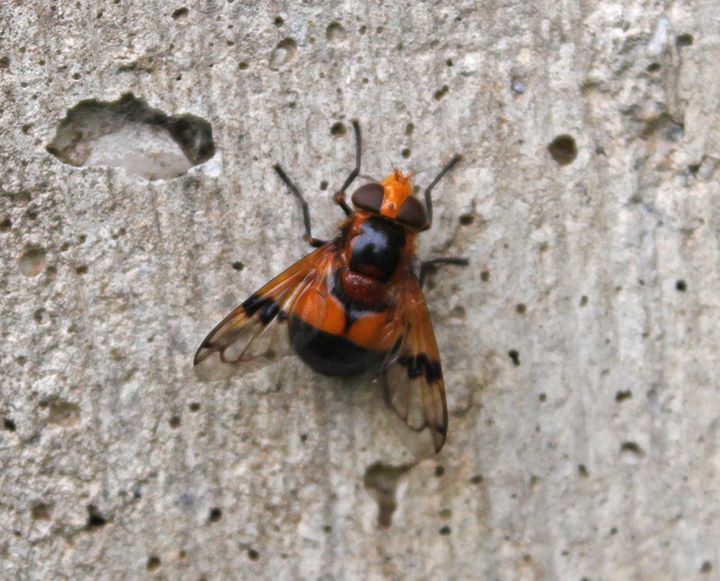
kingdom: Animalia
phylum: Arthropoda
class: Insecta
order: Diptera
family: Syrphidae
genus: Volucella
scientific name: Volucella inflata
